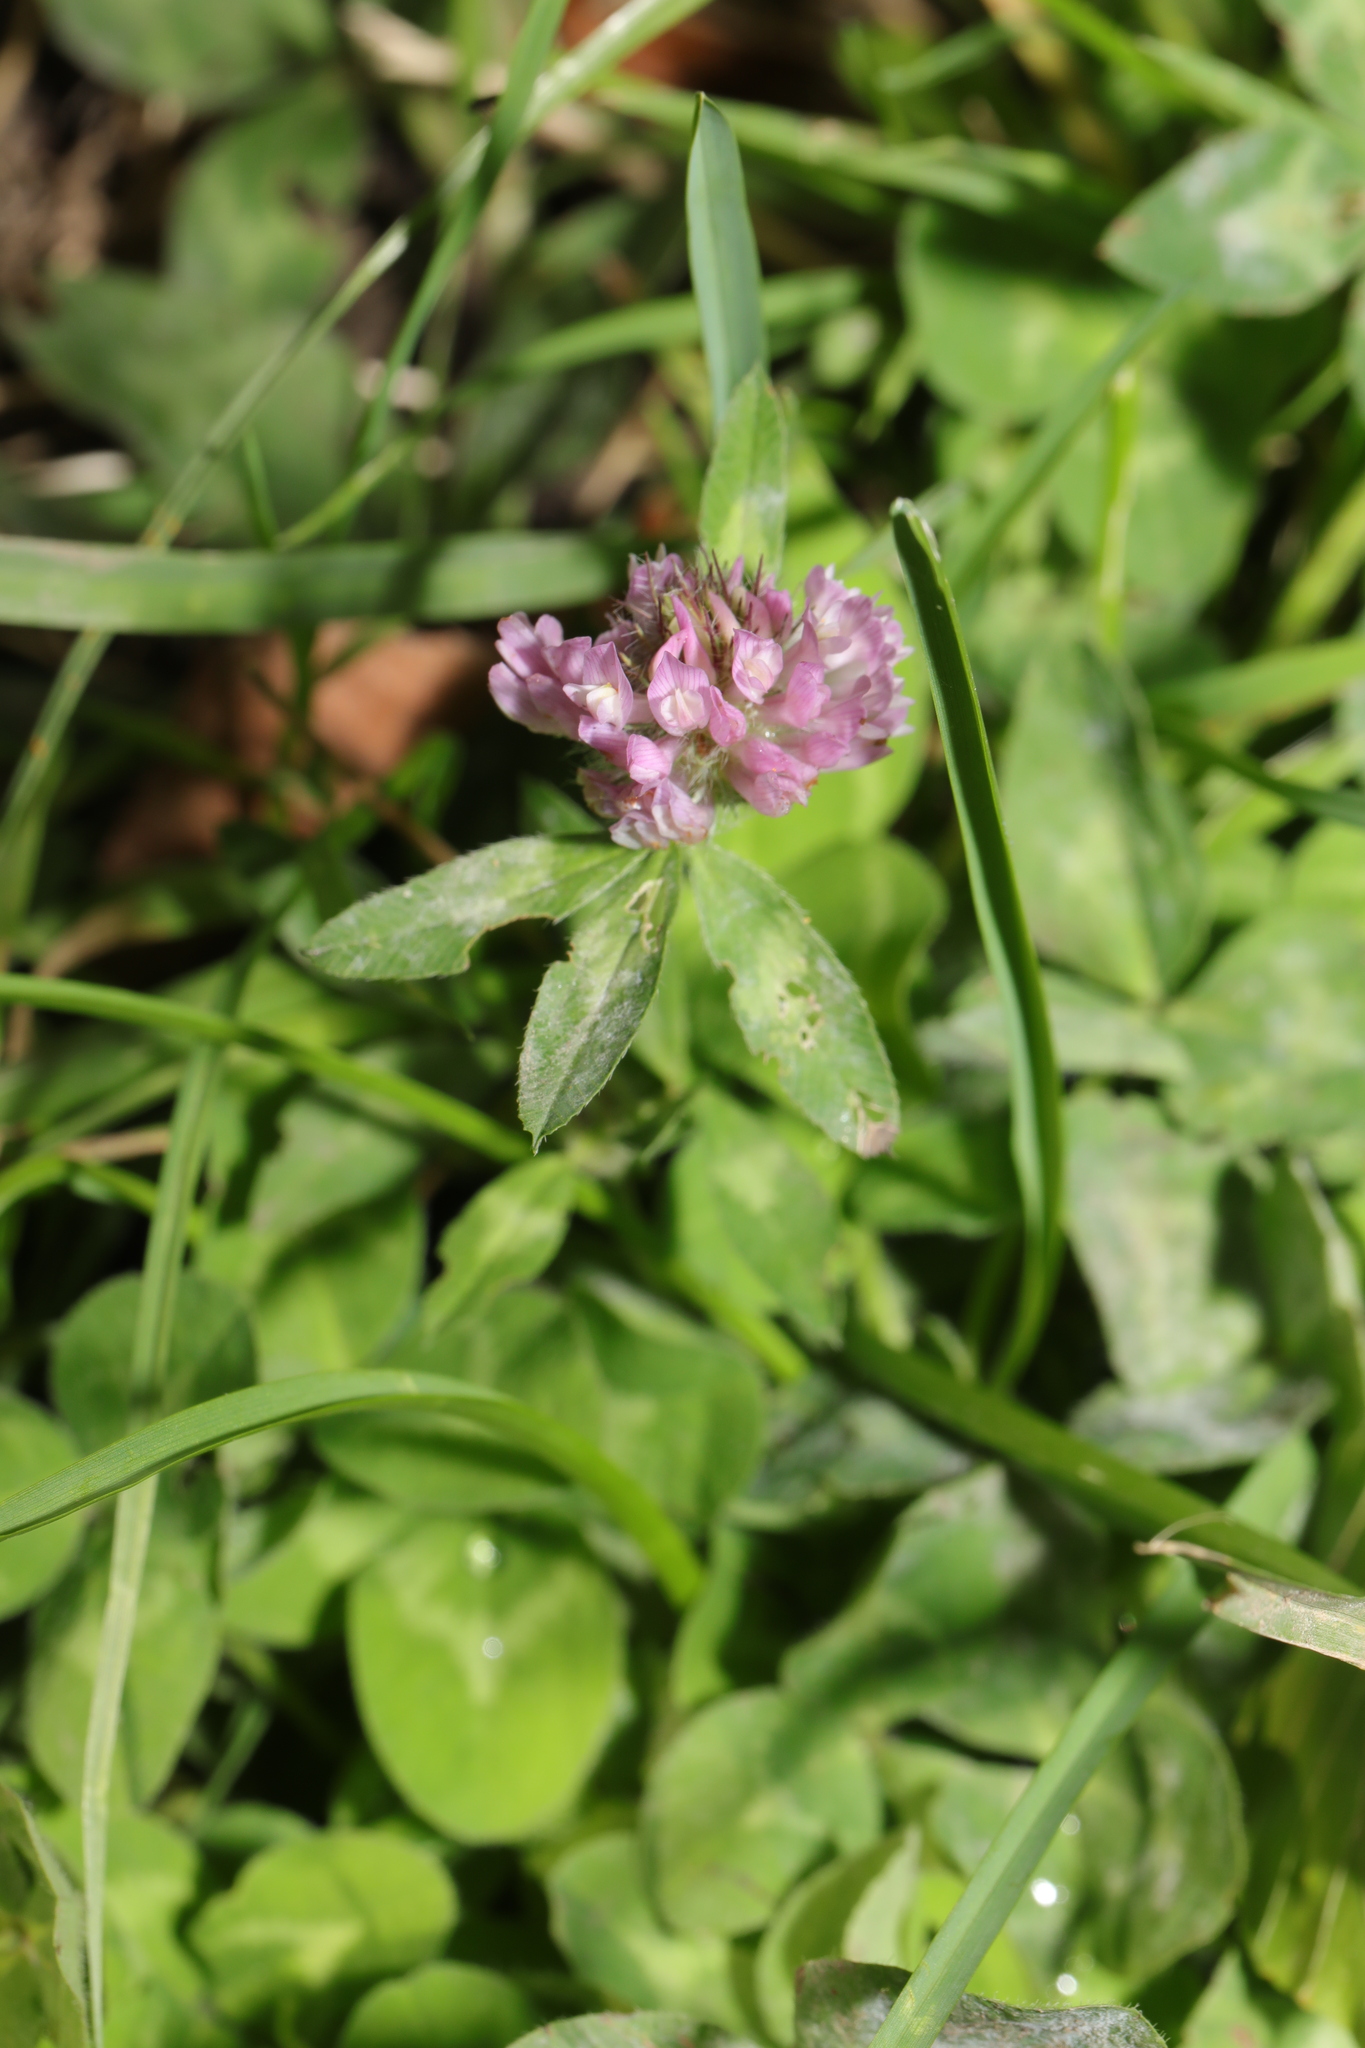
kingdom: Plantae
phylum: Tracheophyta
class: Magnoliopsida
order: Fabales
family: Fabaceae
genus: Trifolium
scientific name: Trifolium pratense
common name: Red clover
